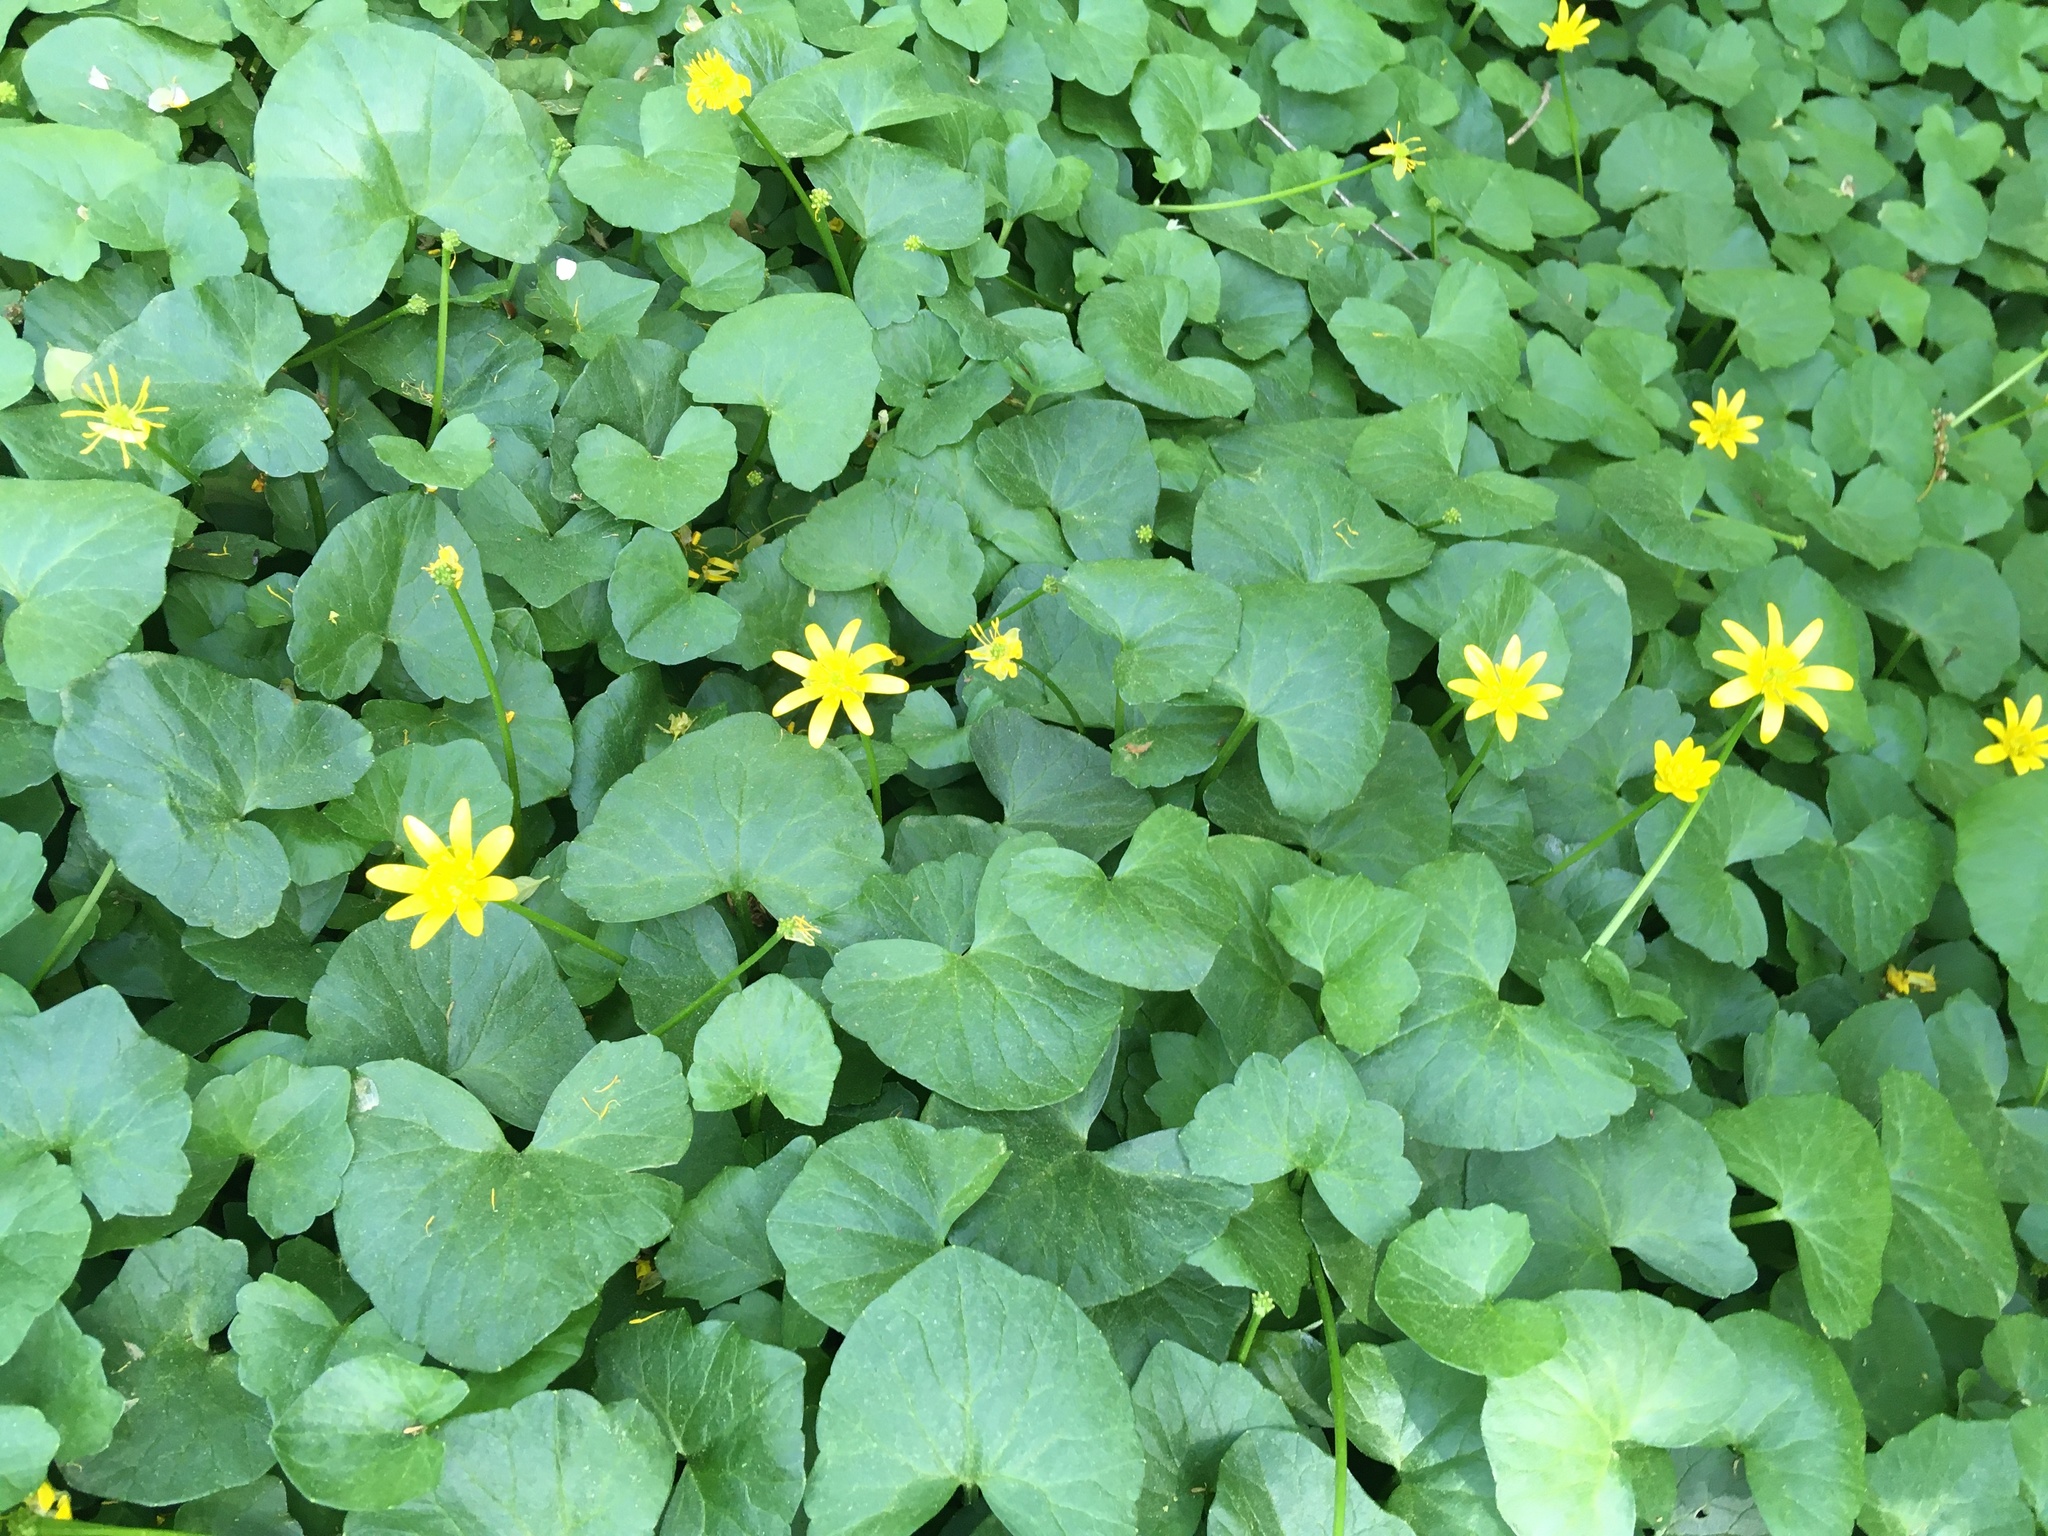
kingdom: Plantae
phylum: Tracheophyta
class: Magnoliopsida
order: Ranunculales
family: Ranunculaceae
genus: Ficaria
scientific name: Ficaria verna
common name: Lesser celandine
